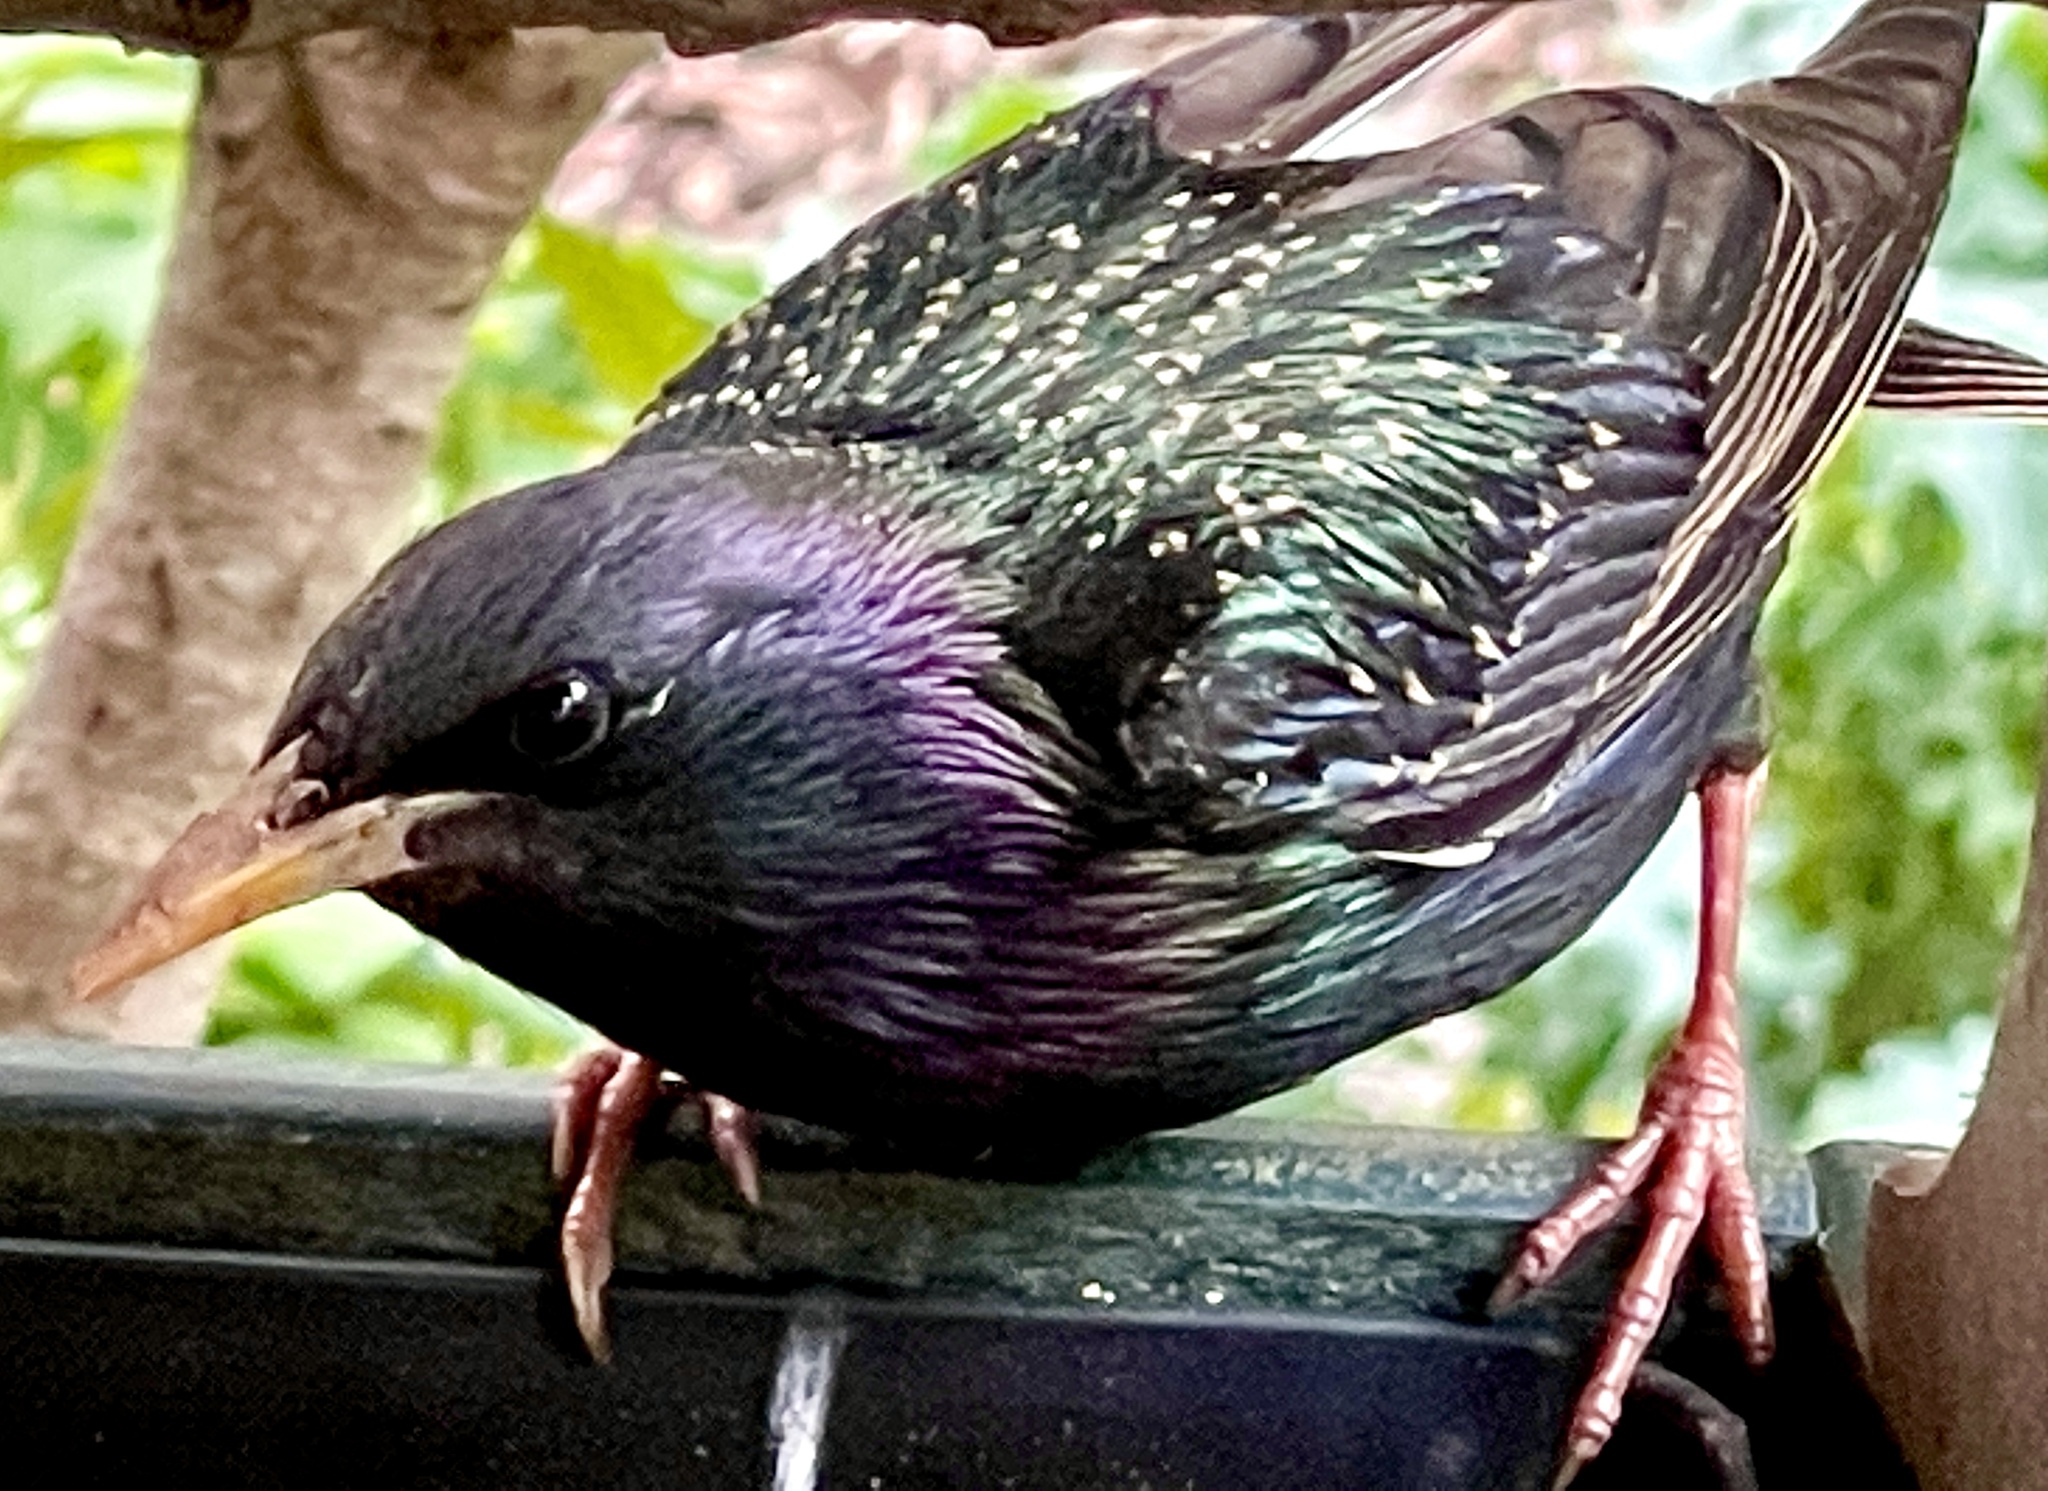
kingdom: Animalia
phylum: Chordata
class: Aves
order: Passeriformes
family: Sturnidae
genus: Sturnus
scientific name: Sturnus vulgaris
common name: Common starling
